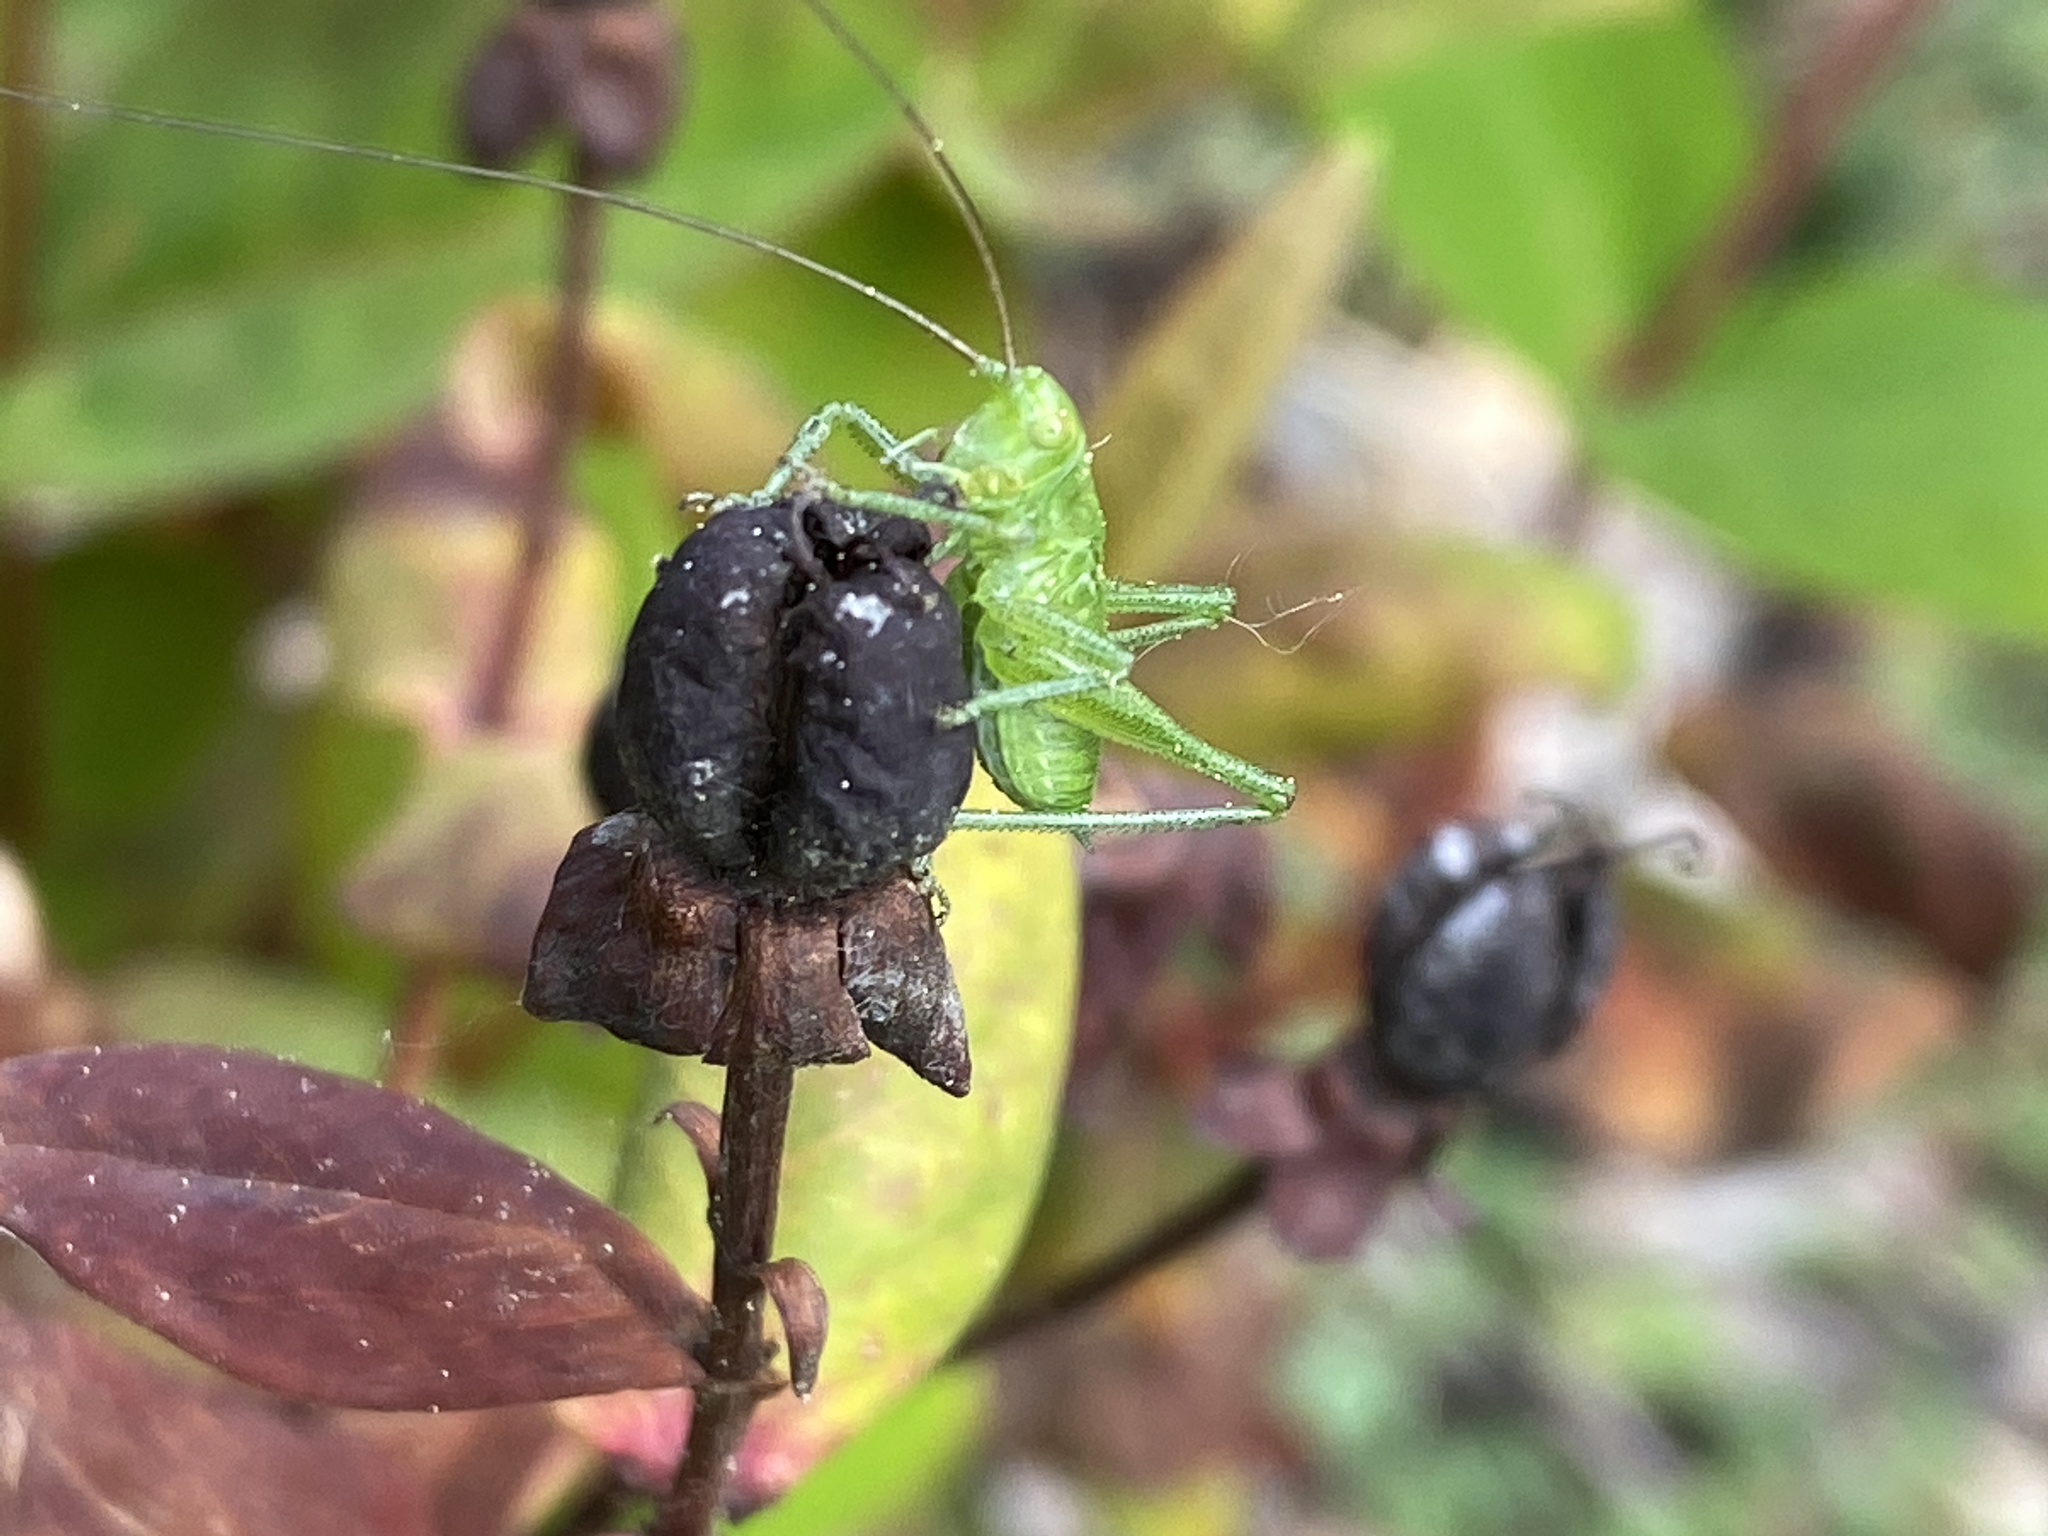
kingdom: Animalia
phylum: Arthropoda
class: Insecta
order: Orthoptera
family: Tettigoniidae
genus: Tettigonia
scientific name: Tettigonia viridissima
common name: Great green bush-cricket
